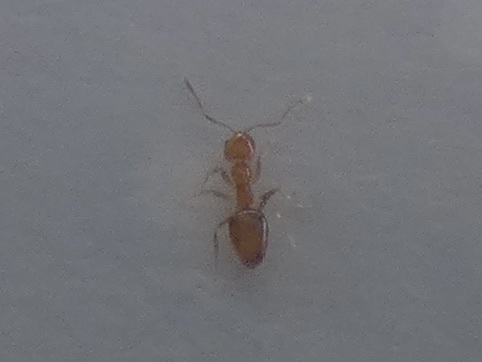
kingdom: Animalia
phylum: Arthropoda
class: Insecta
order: Hymenoptera
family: Formicidae
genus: Plagiolepis
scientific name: Plagiolepis alluaudi
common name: Little yellow ant
